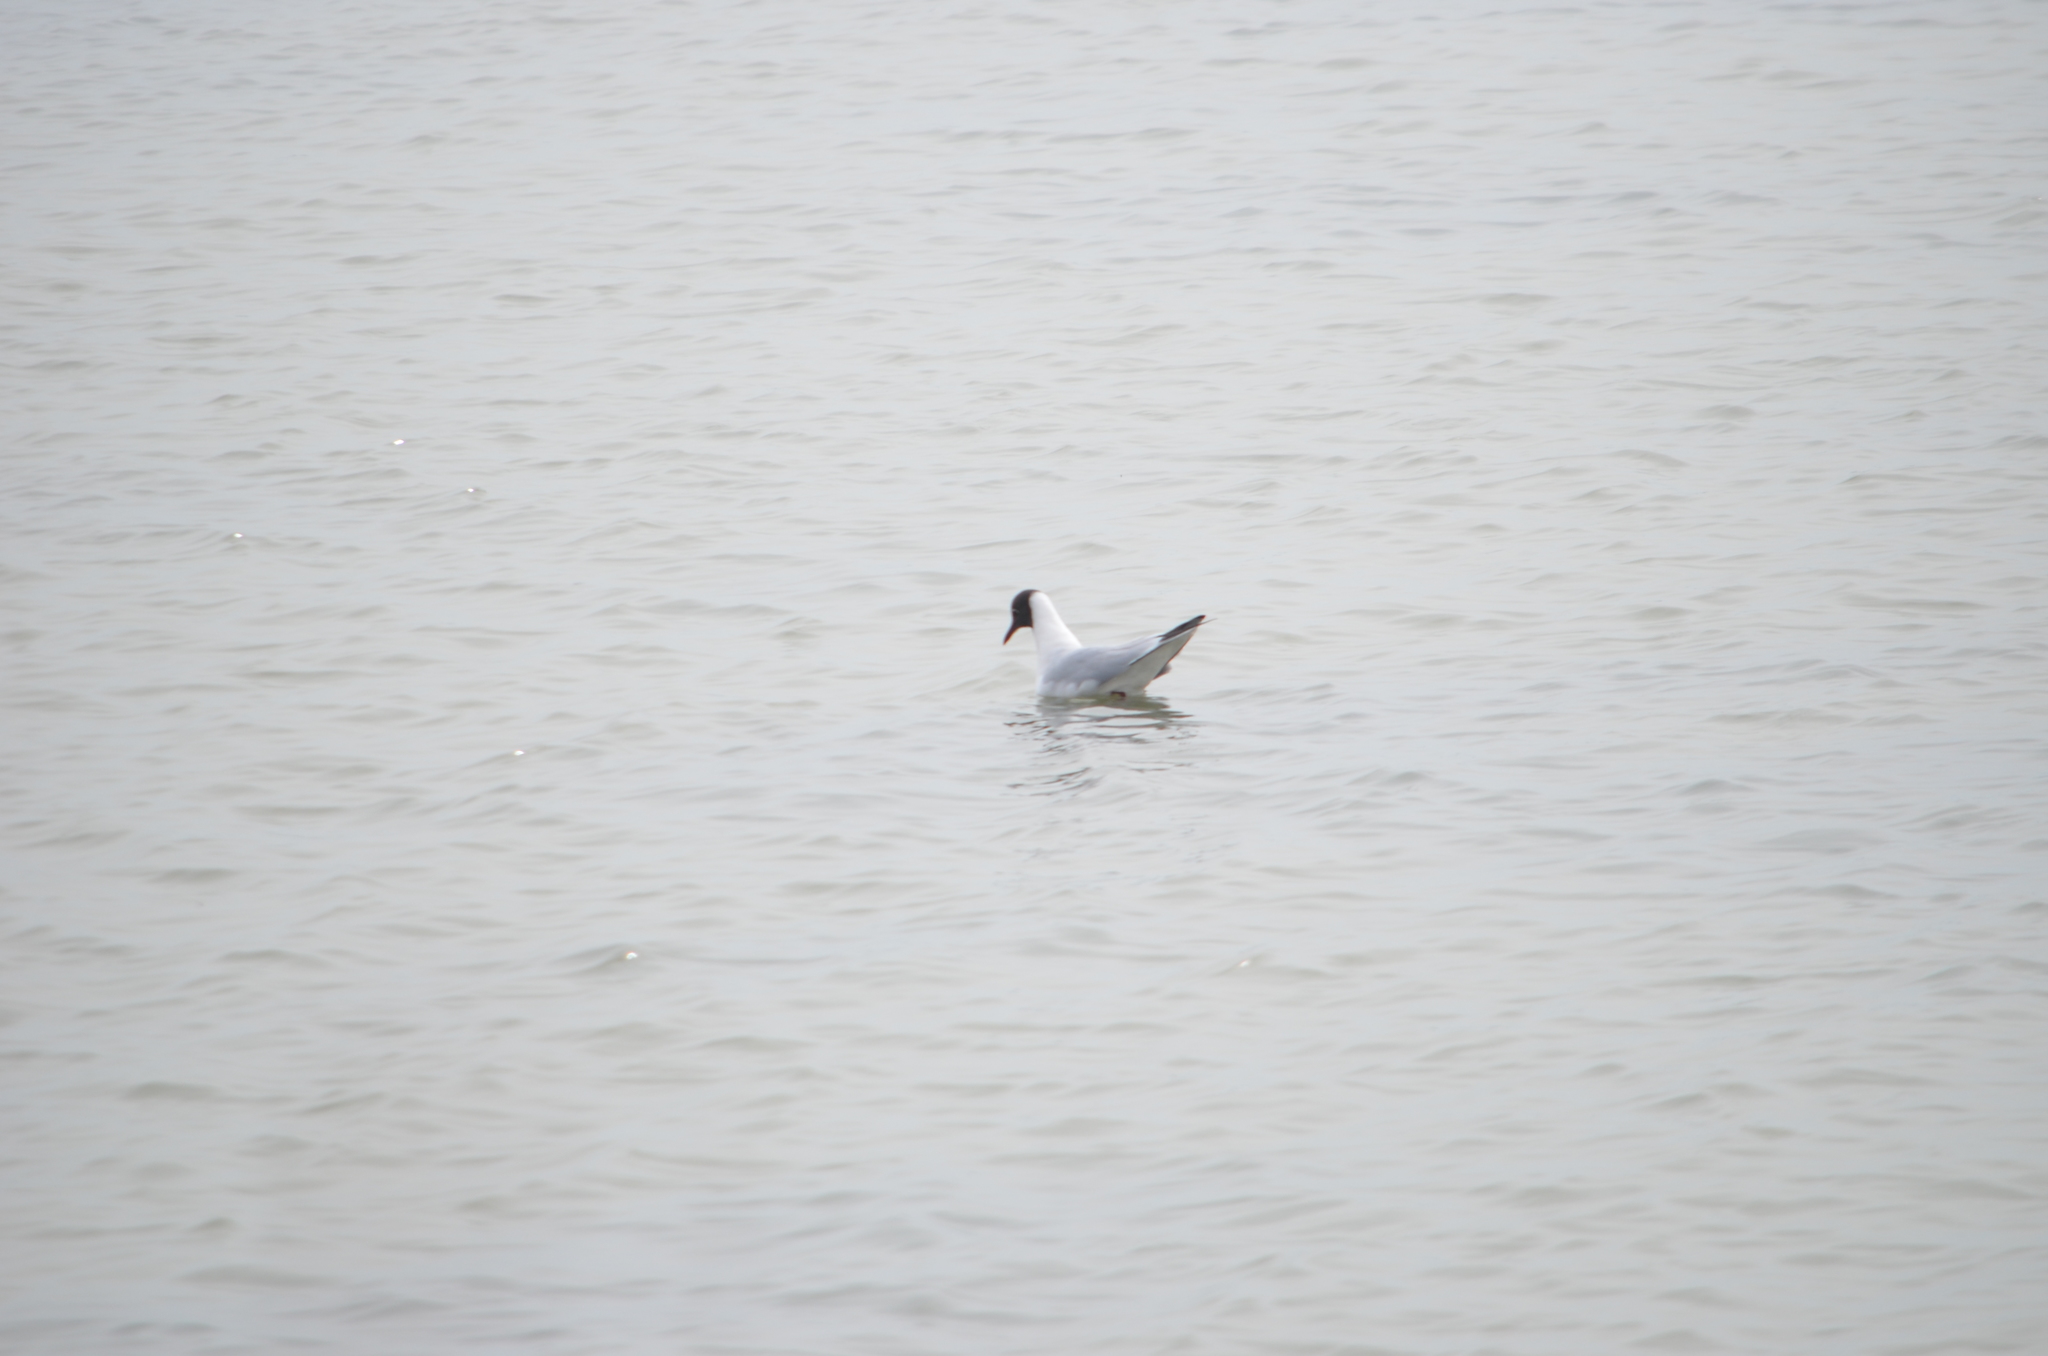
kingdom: Animalia
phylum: Chordata
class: Aves
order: Charadriiformes
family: Laridae
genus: Chroicocephalus
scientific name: Chroicocephalus ridibundus
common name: Black-headed gull
